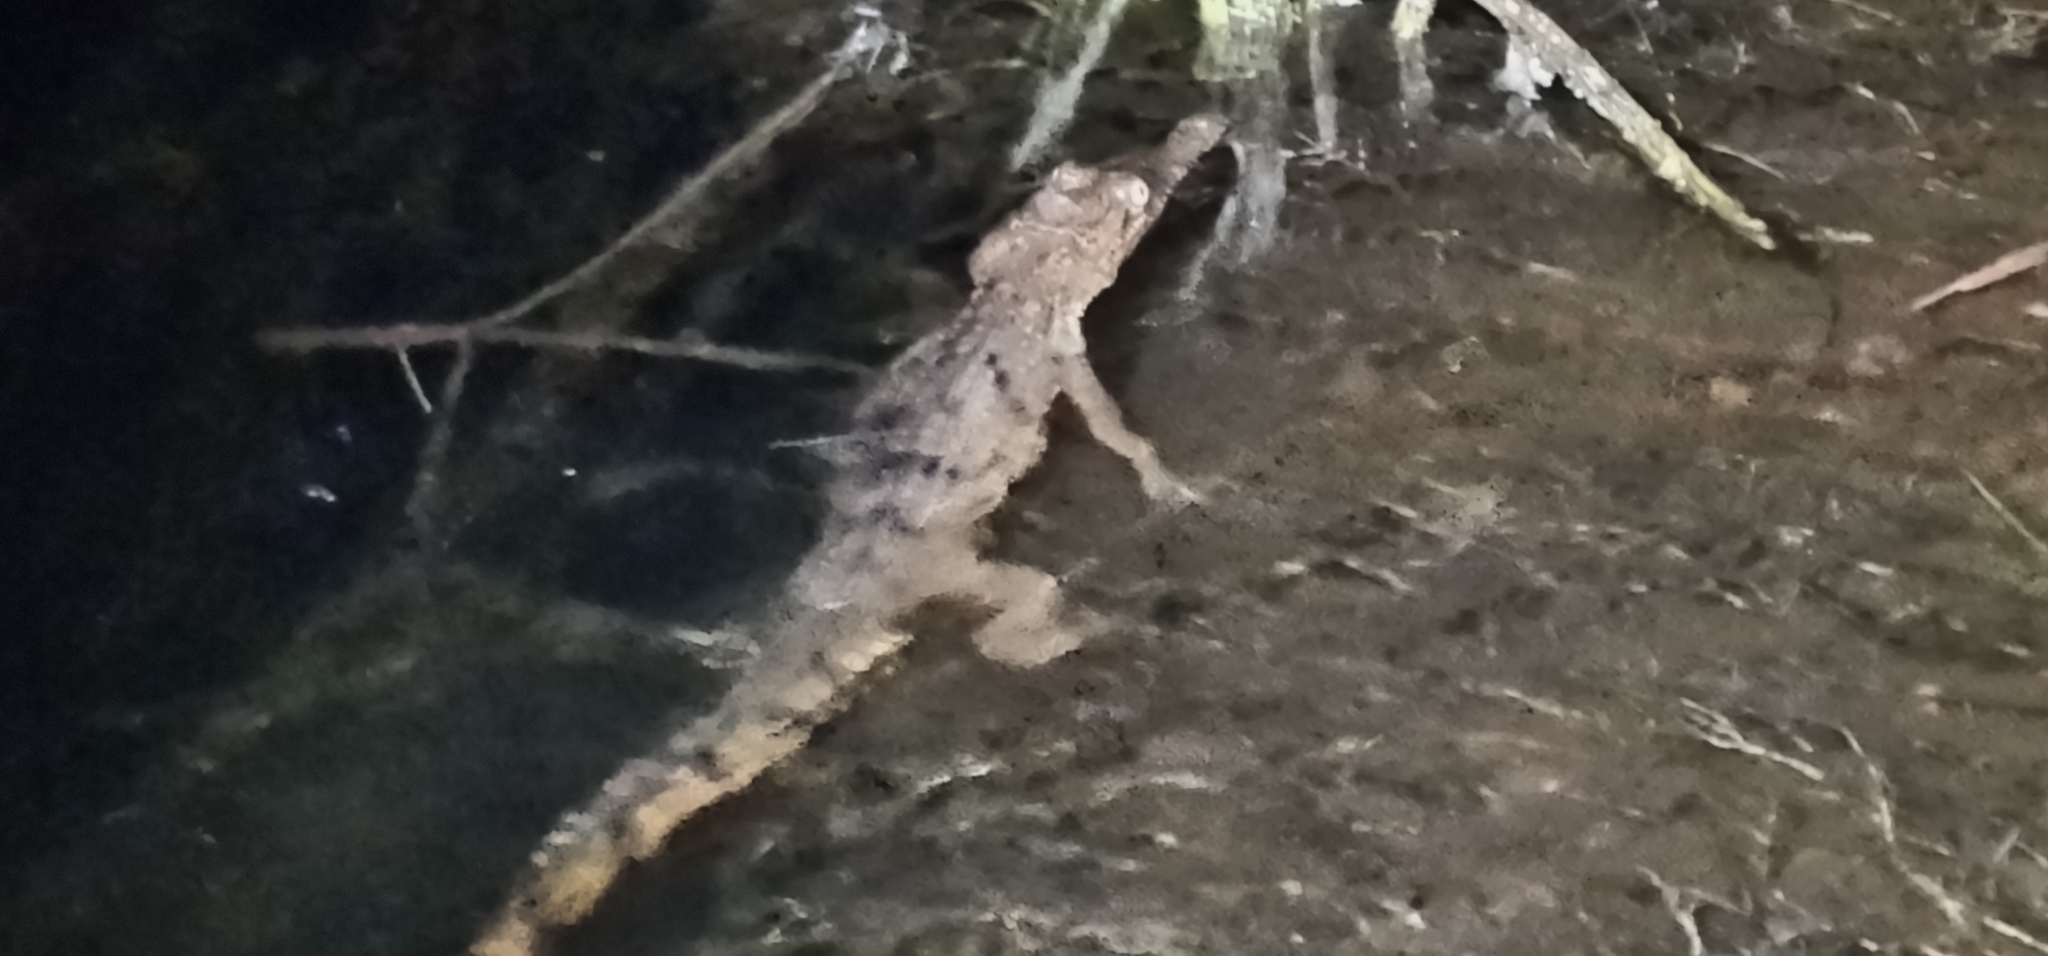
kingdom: Animalia
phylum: Chordata
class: Crocodylia
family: Crocodylidae
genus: Crocodylus
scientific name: Crocodylus johnsoni
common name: Freshwater crocodile
